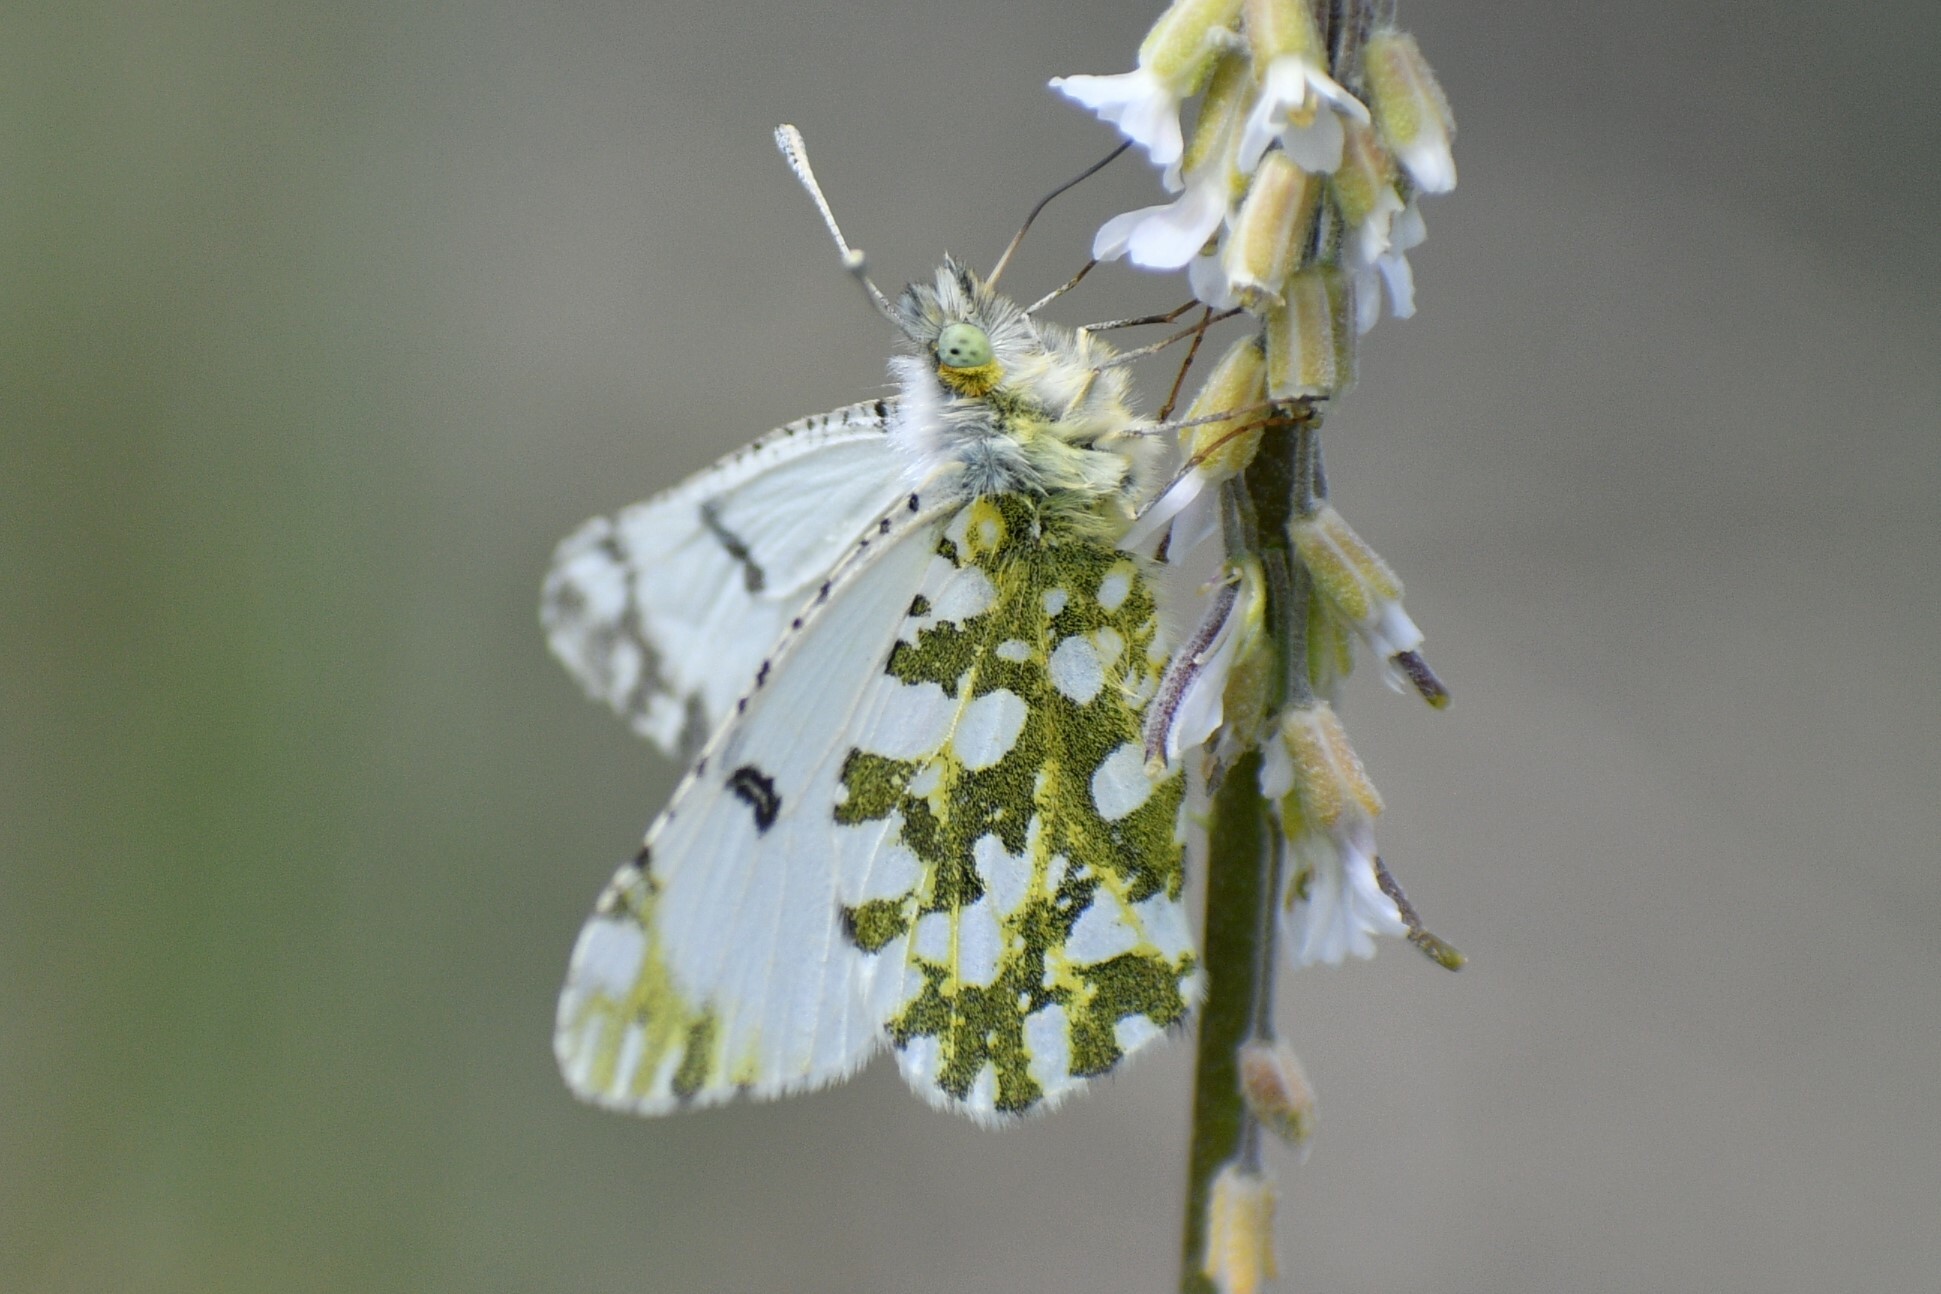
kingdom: Animalia
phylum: Arthropoda
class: Insecta
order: Lepidoptera
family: Pieridae
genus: Euchloe
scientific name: Euchloe ausonides
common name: Creamy marblewing
